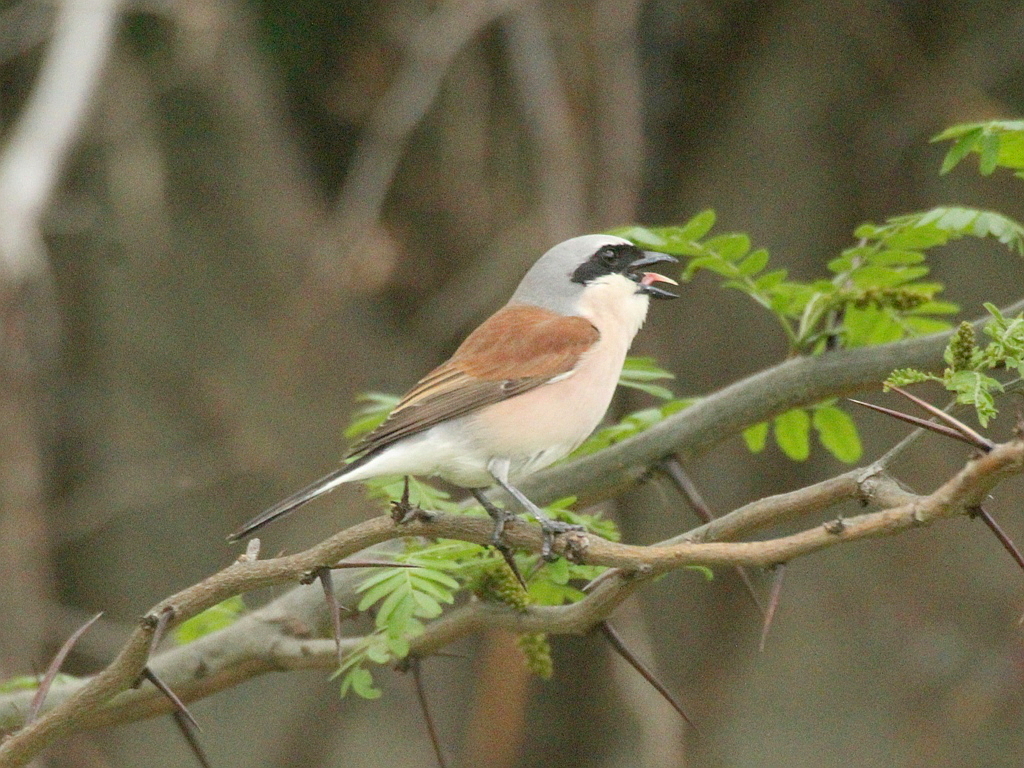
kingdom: Animalia
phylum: Chordata
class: Aves
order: Passeriformes
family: Laniidae
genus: Lanius
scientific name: Lanius collurio
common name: Red-backed shrike
